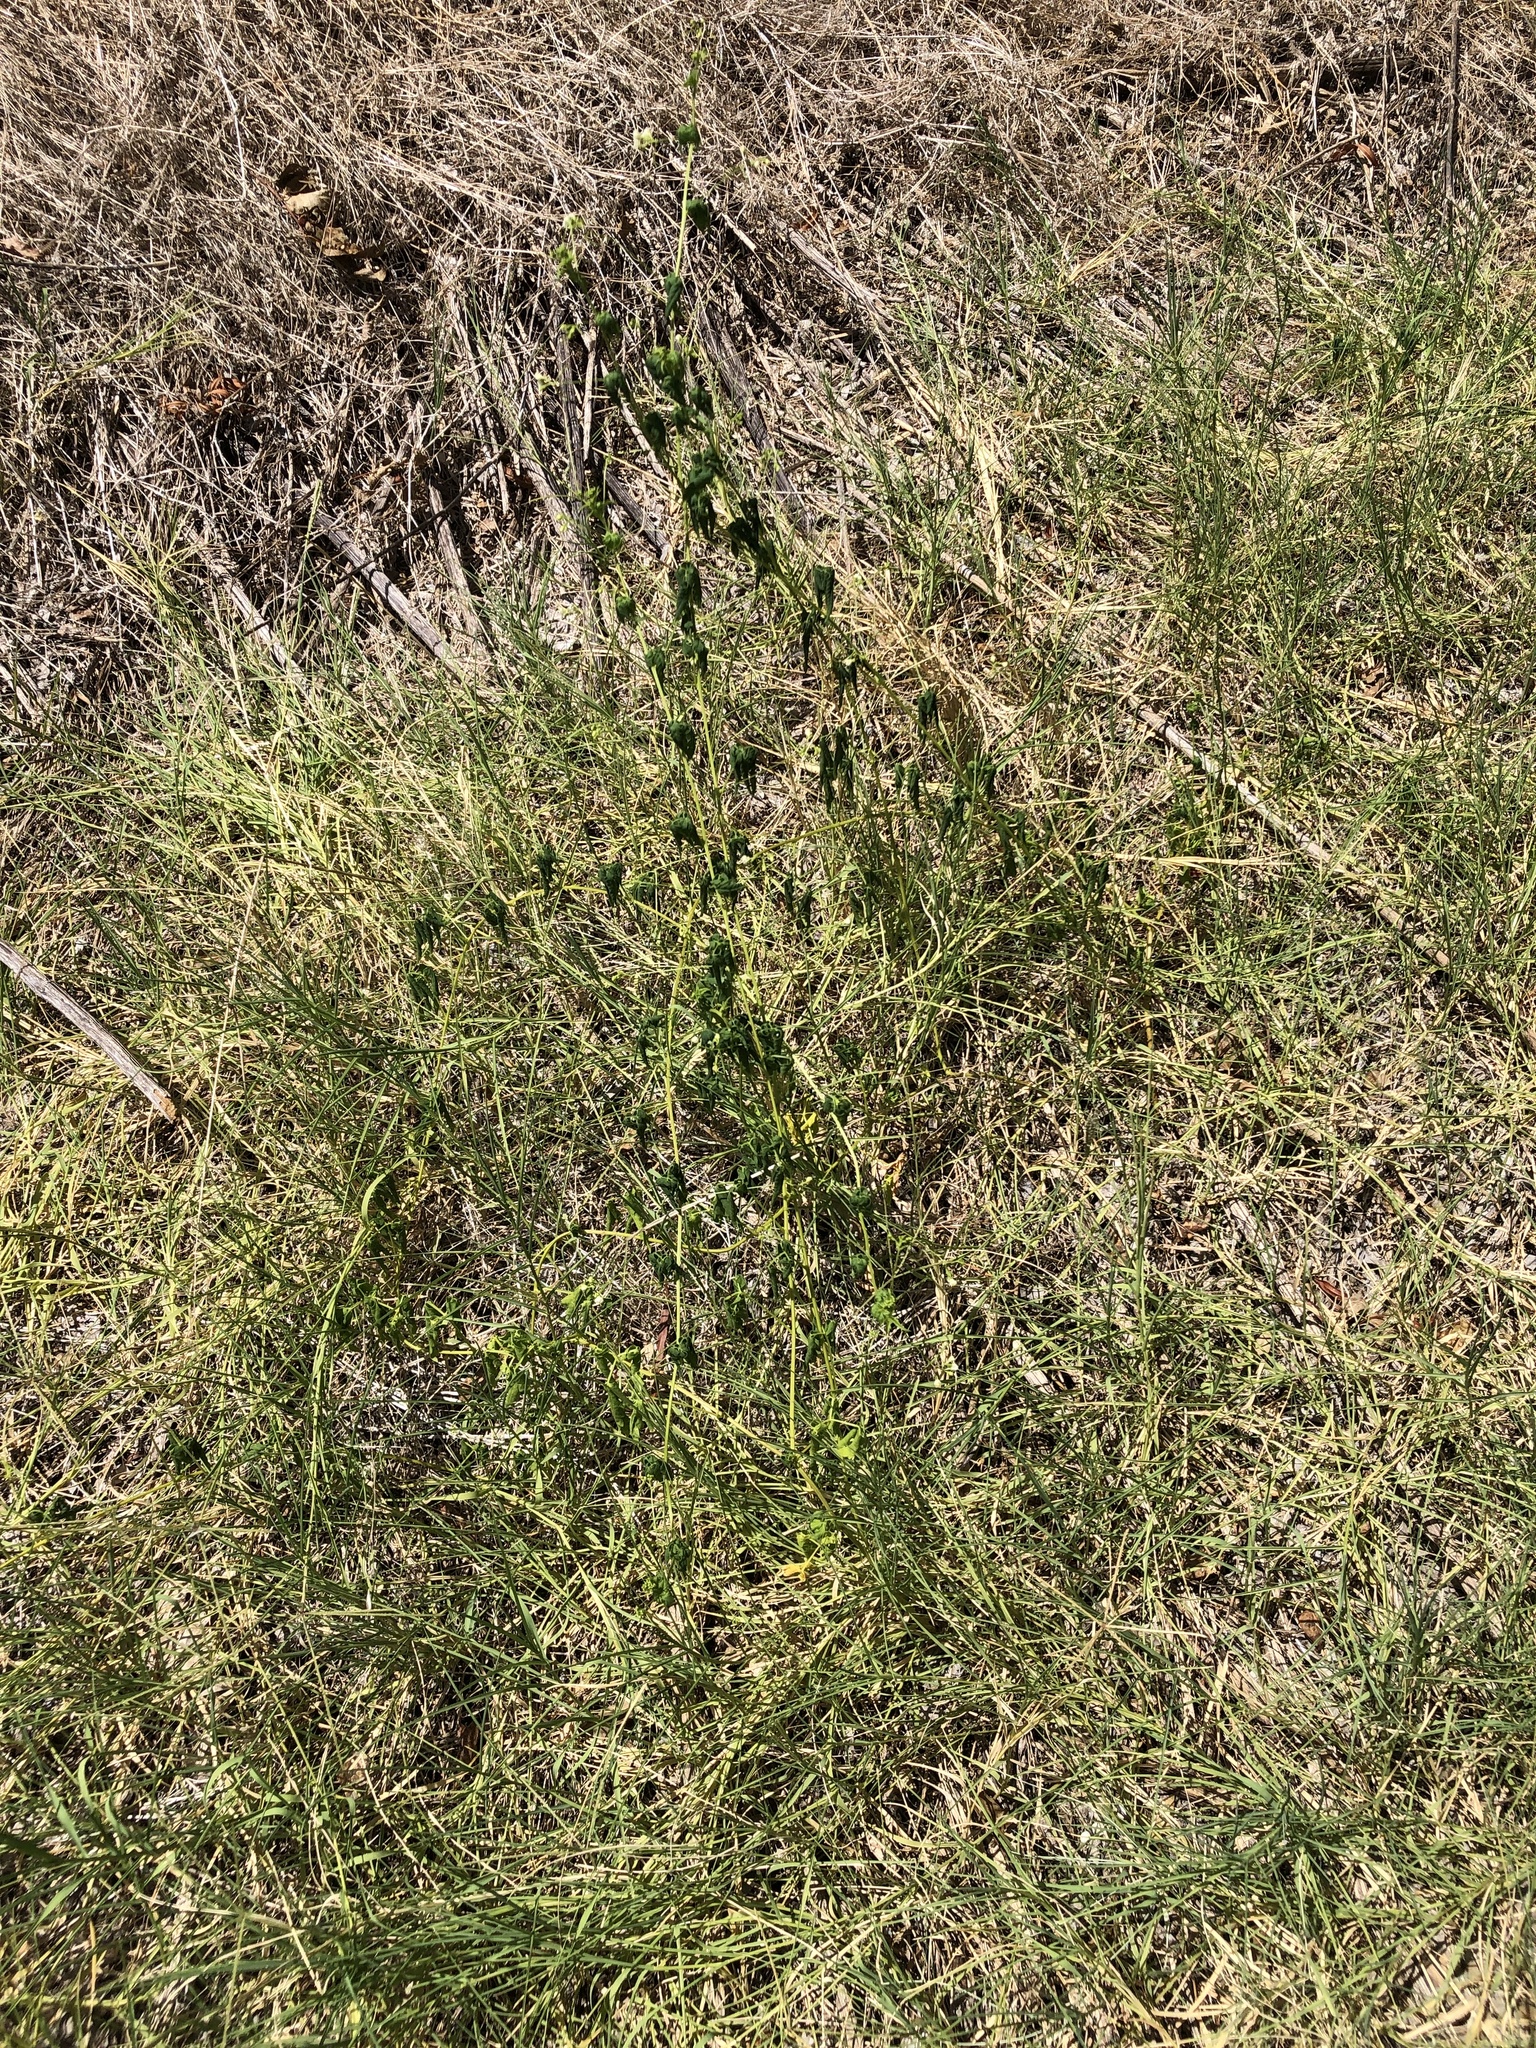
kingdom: Plantae
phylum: Tracheophyta
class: Magnoliopsida
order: Sapindales
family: Sapindaceae
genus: Cardiospermum
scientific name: Cardiospermum halicacabum
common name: Balloon vine
